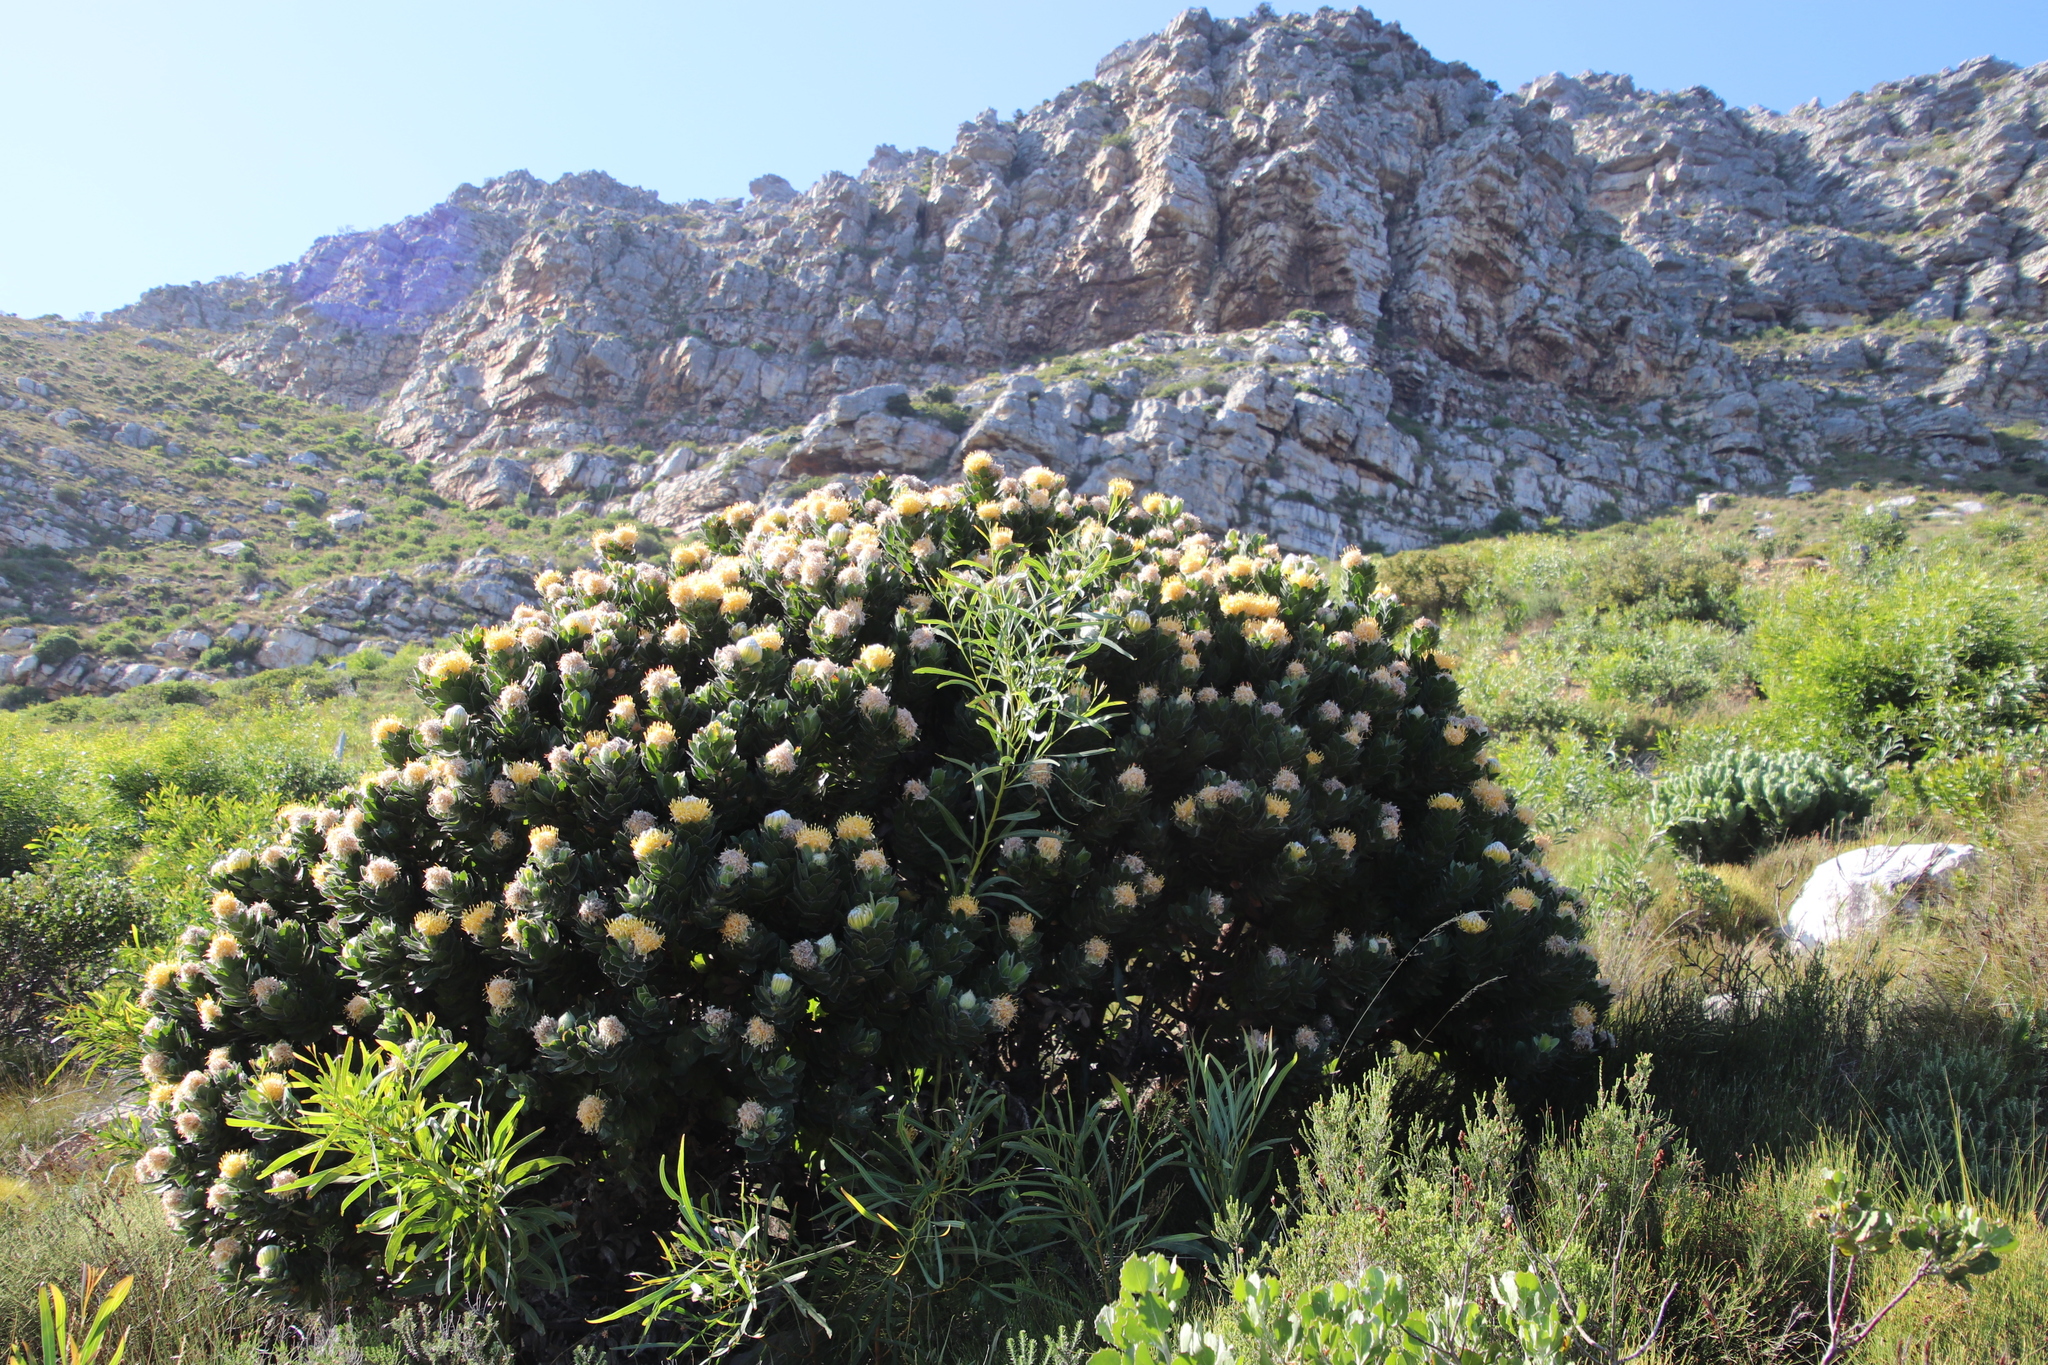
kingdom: Plantae
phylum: Tracheophyta
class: Magnoliopsida
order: Proteales
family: Proteaceae
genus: Leucospermum
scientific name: Leucospermum conocarpodendron
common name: Tree pincushion
